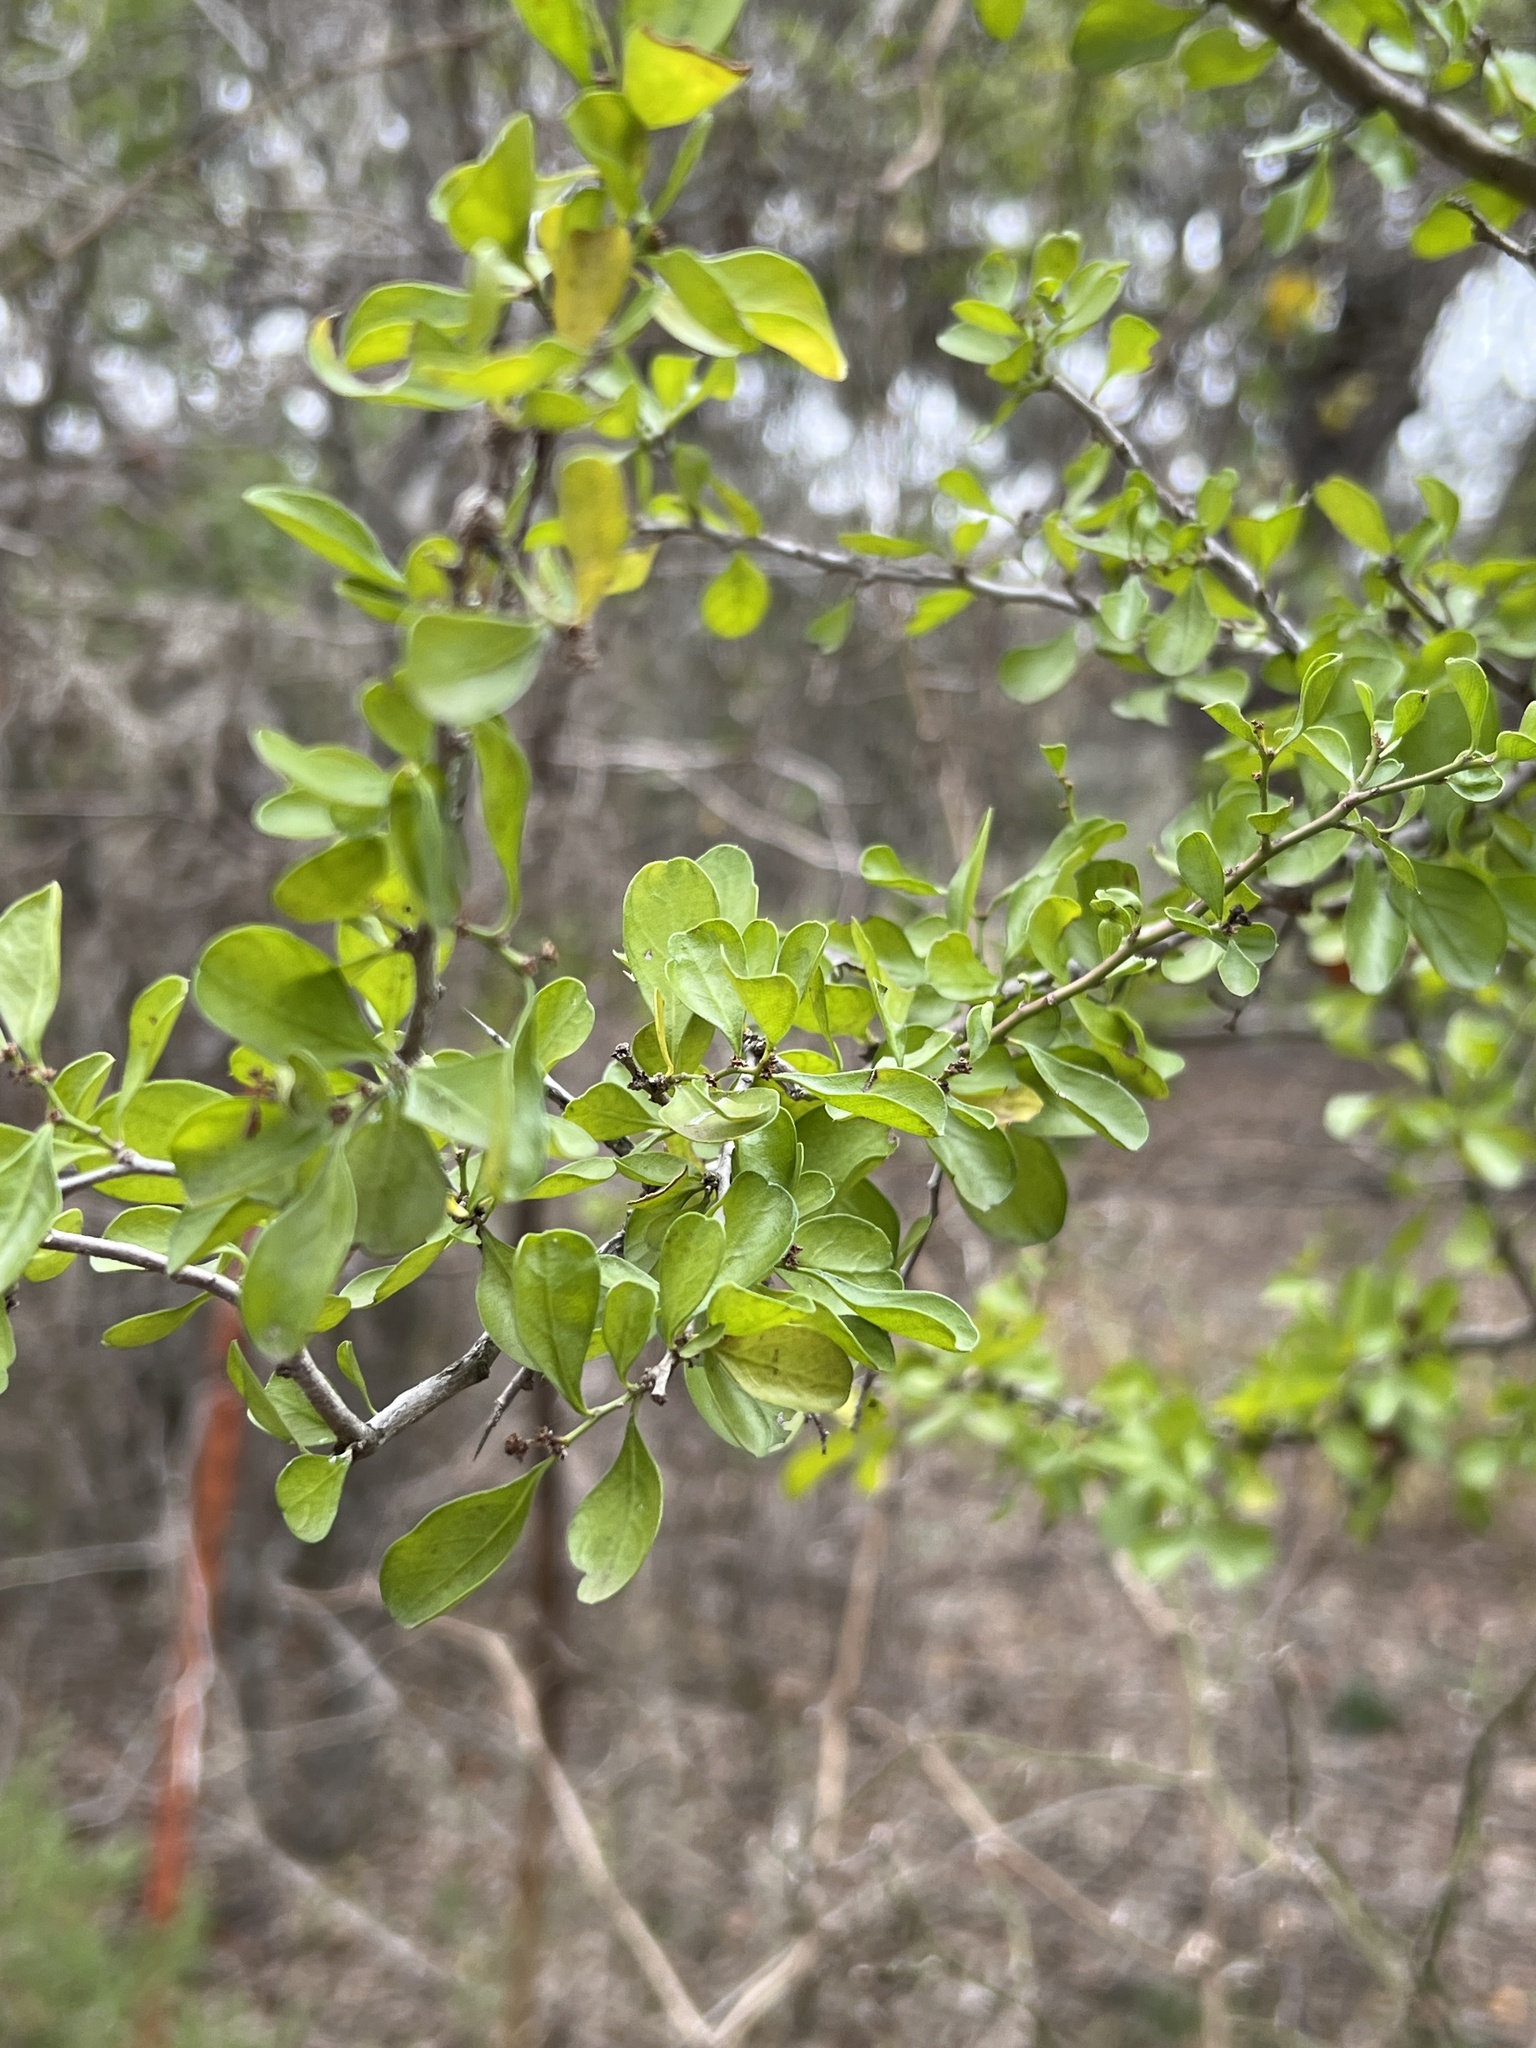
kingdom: Plantae
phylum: Tracheophyta
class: Magnoliopsida
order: Rosales
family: Rhamnaceae
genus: Condalia
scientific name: Condalia hookeri
